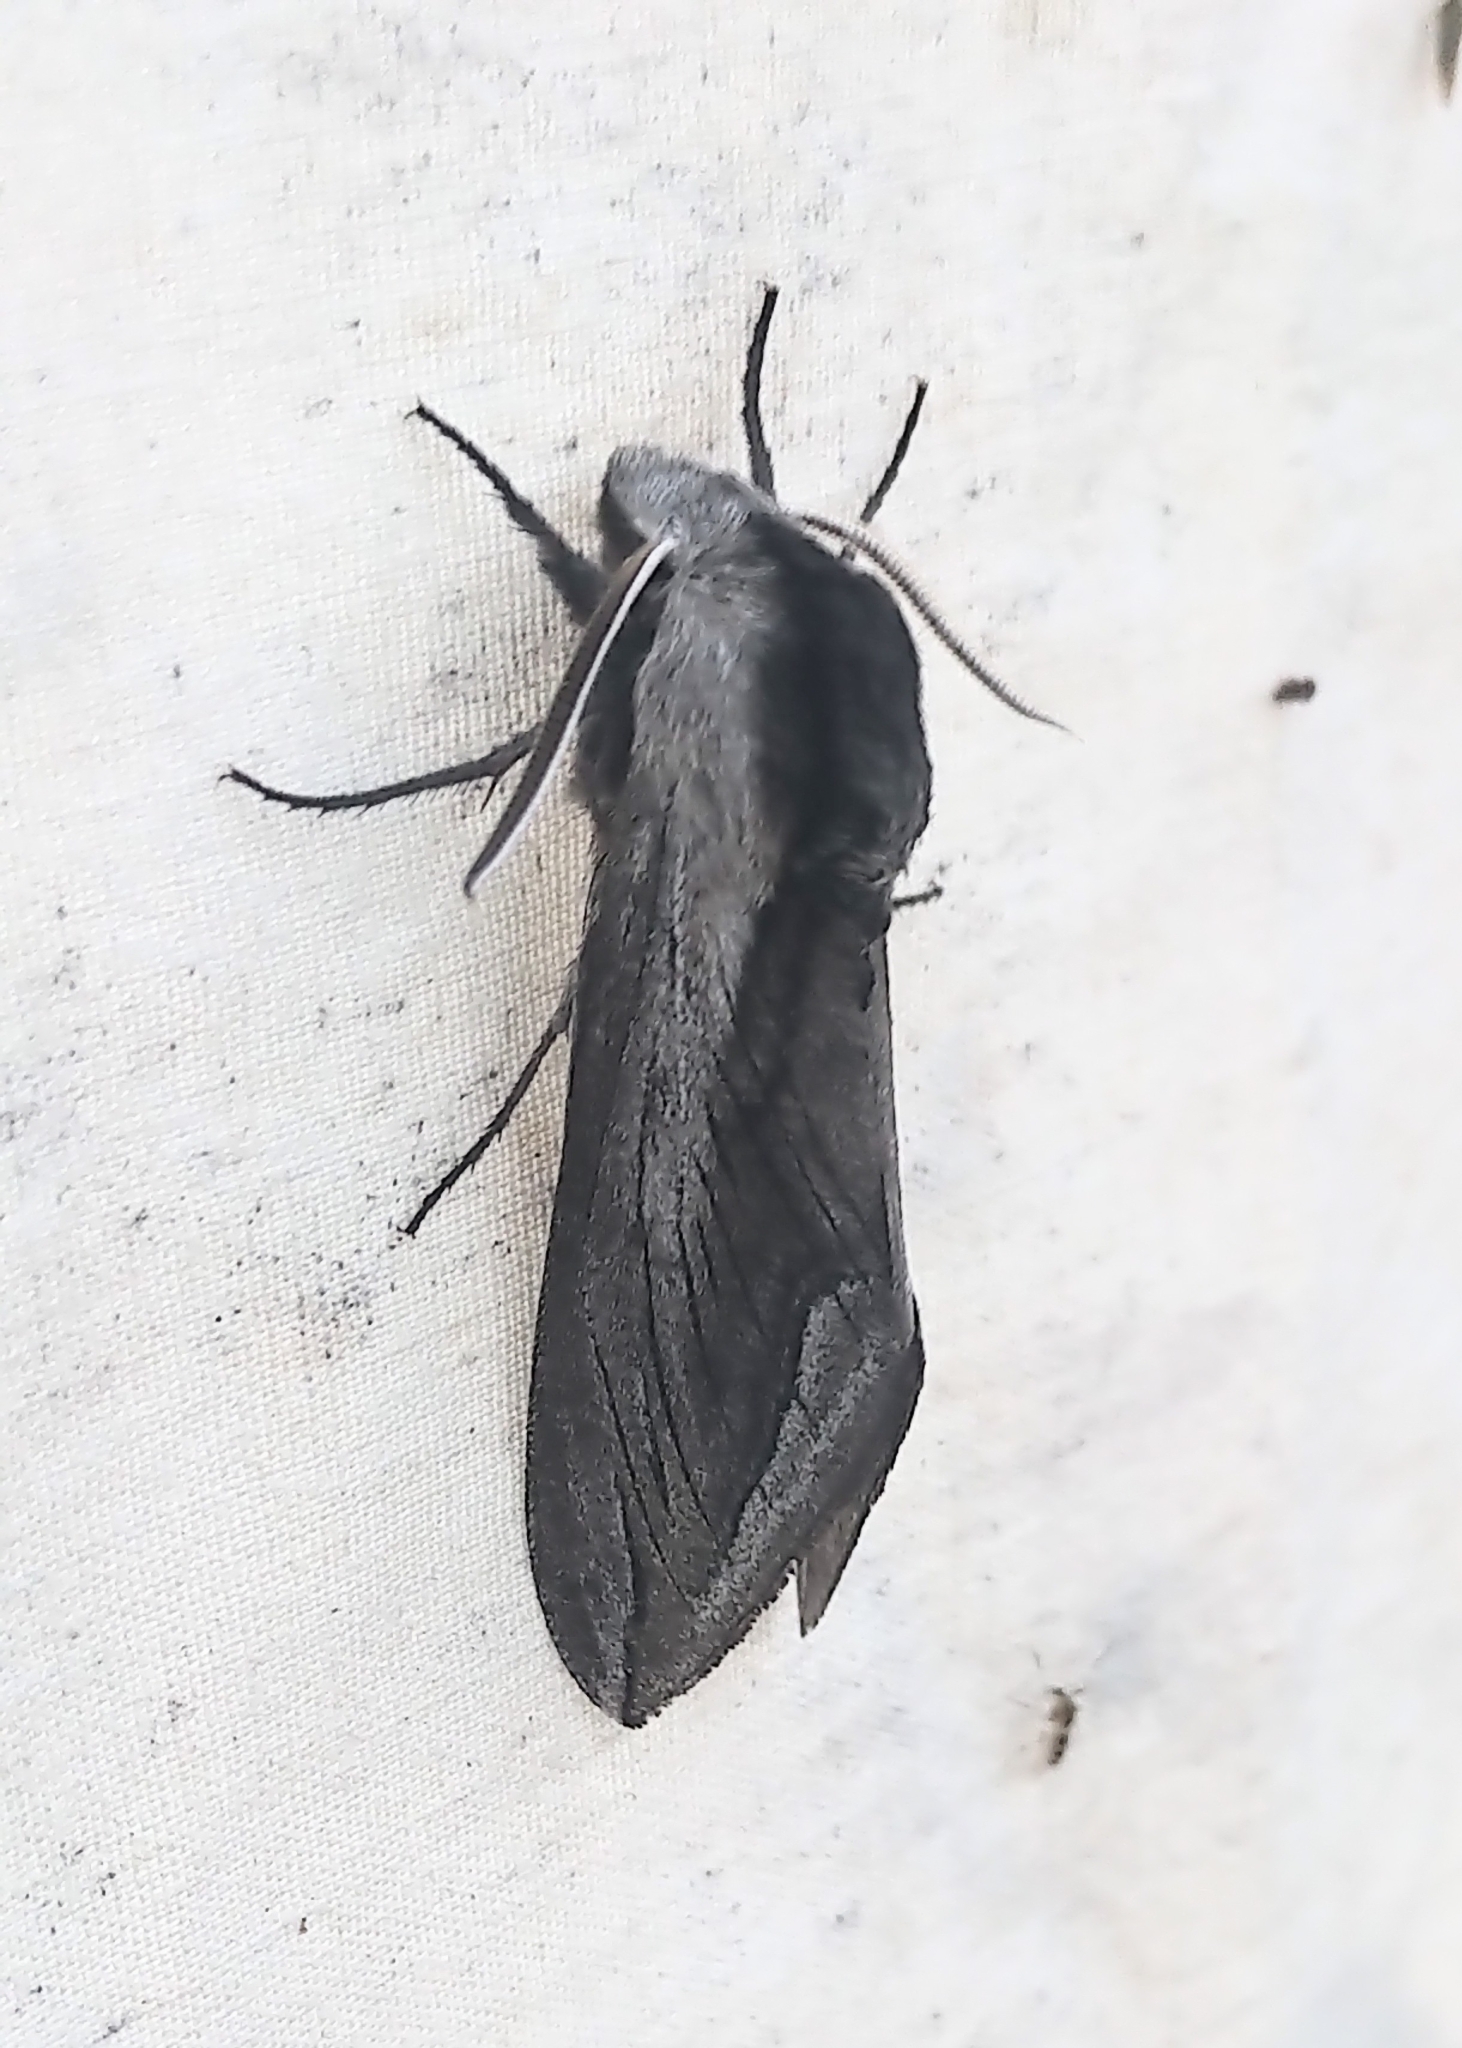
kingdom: Animalia
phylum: Arthropoda
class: Insecta
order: Lepidoptera
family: Sphingidae
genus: Sphinx
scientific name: Sphinx vashti
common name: Snowberry sphinx
